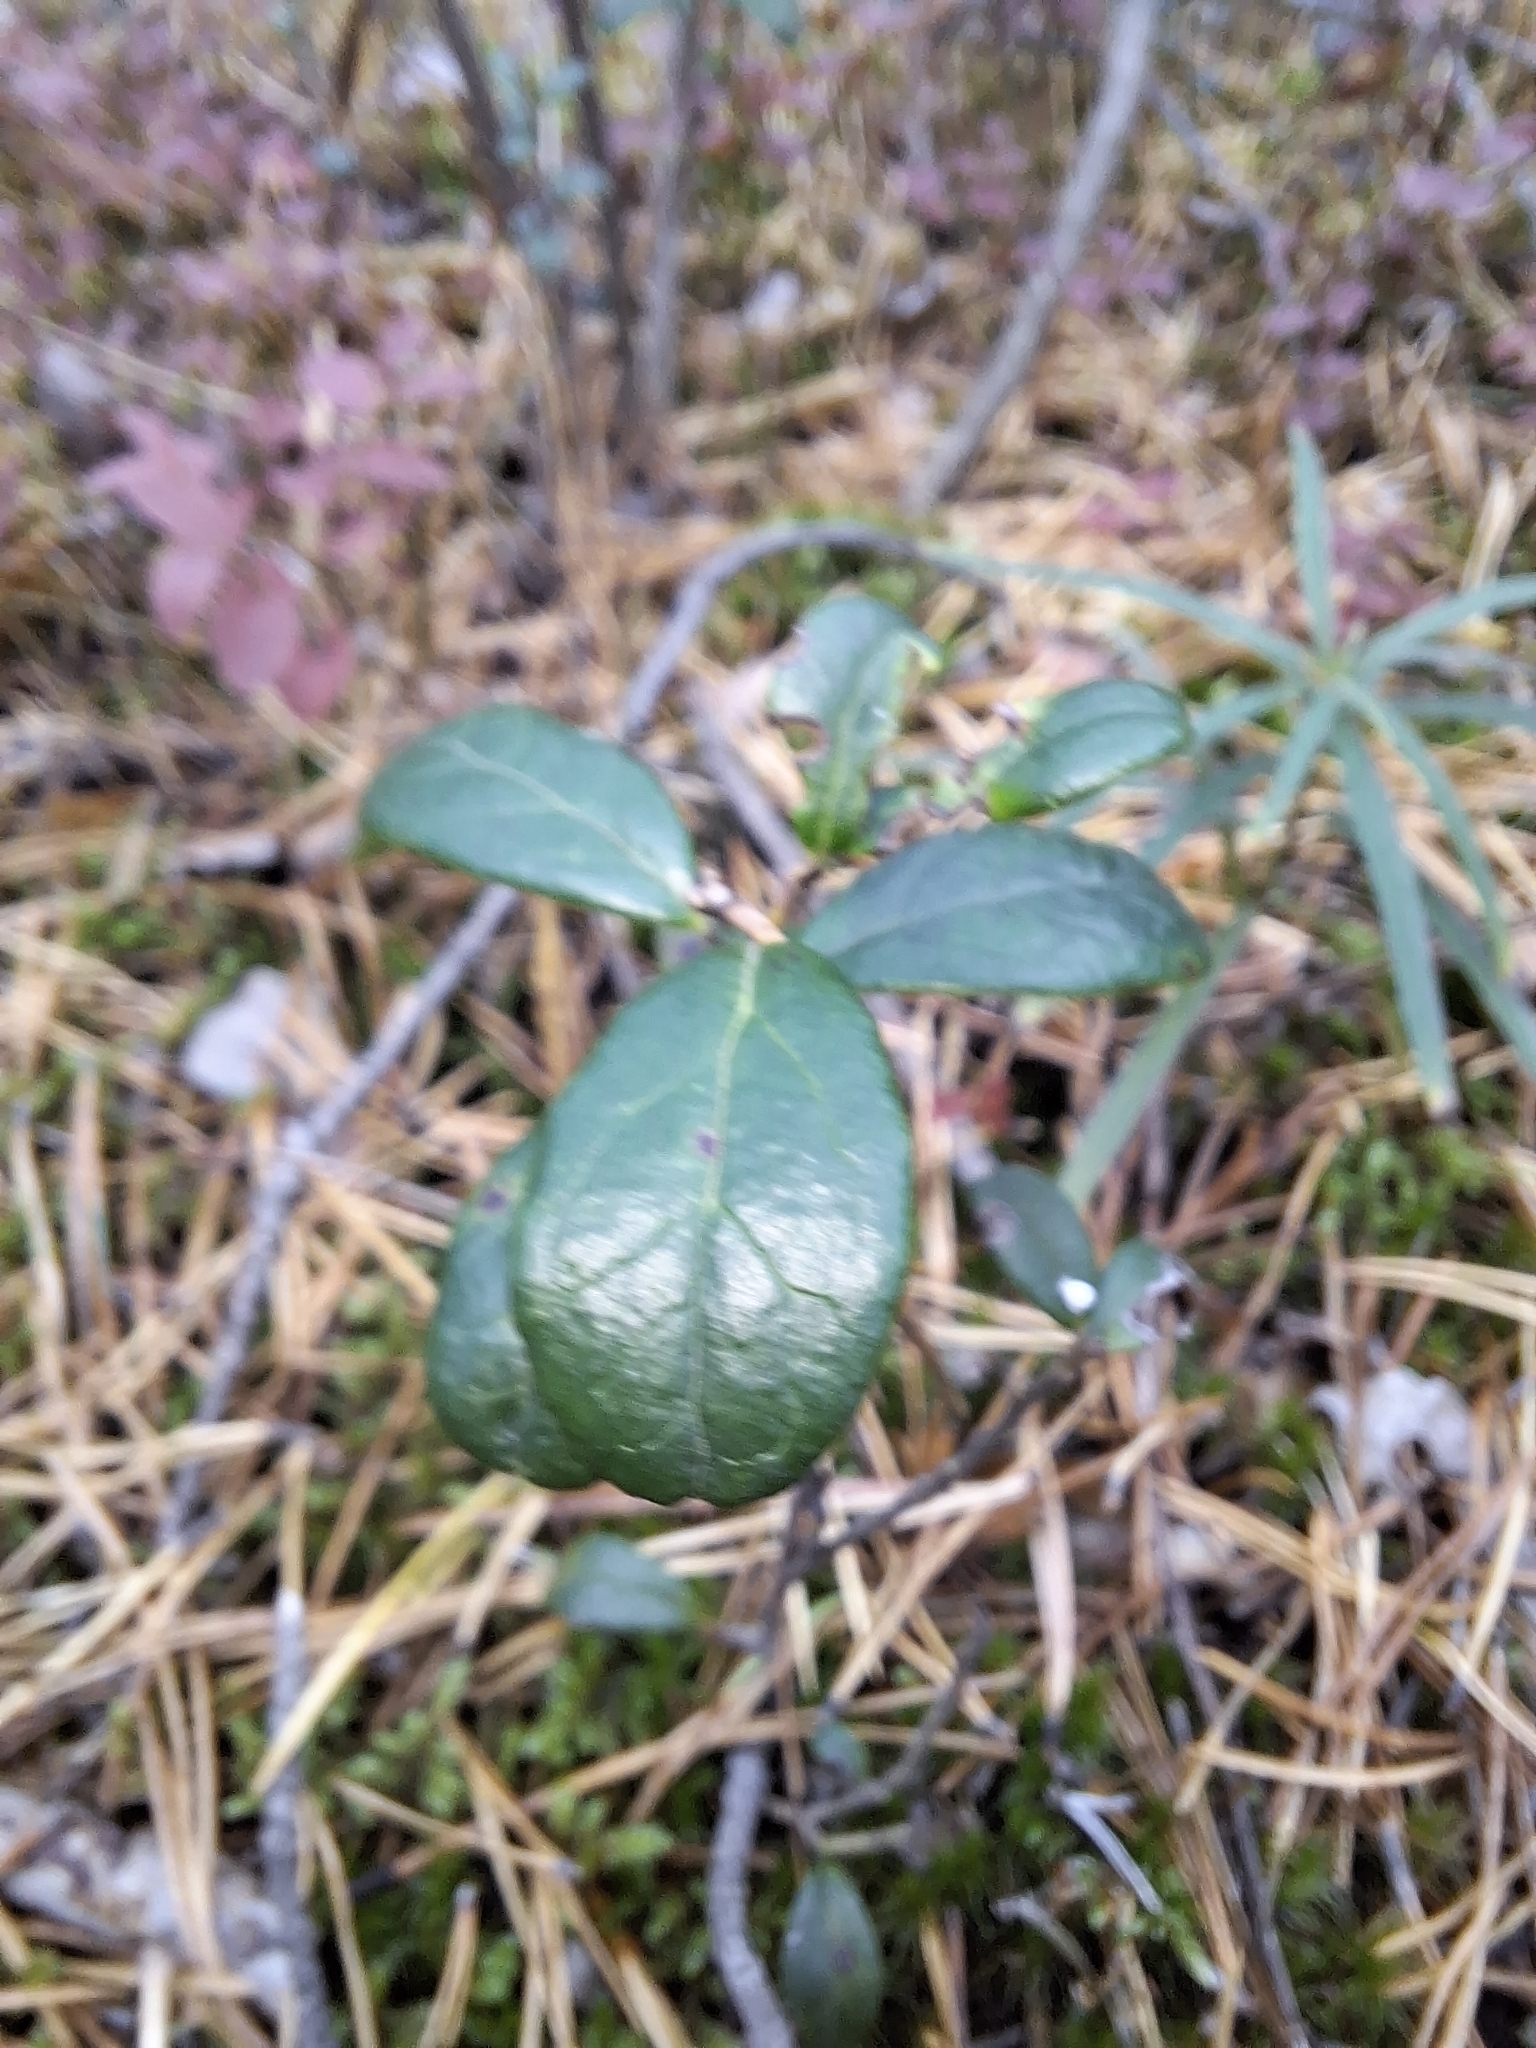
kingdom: Plantae
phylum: Tracheophyta
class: Magnoliopsida
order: Ericales
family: Ericaceae
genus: Vaccinium
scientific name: Vaccinium vitis-idaea
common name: Cowberry
